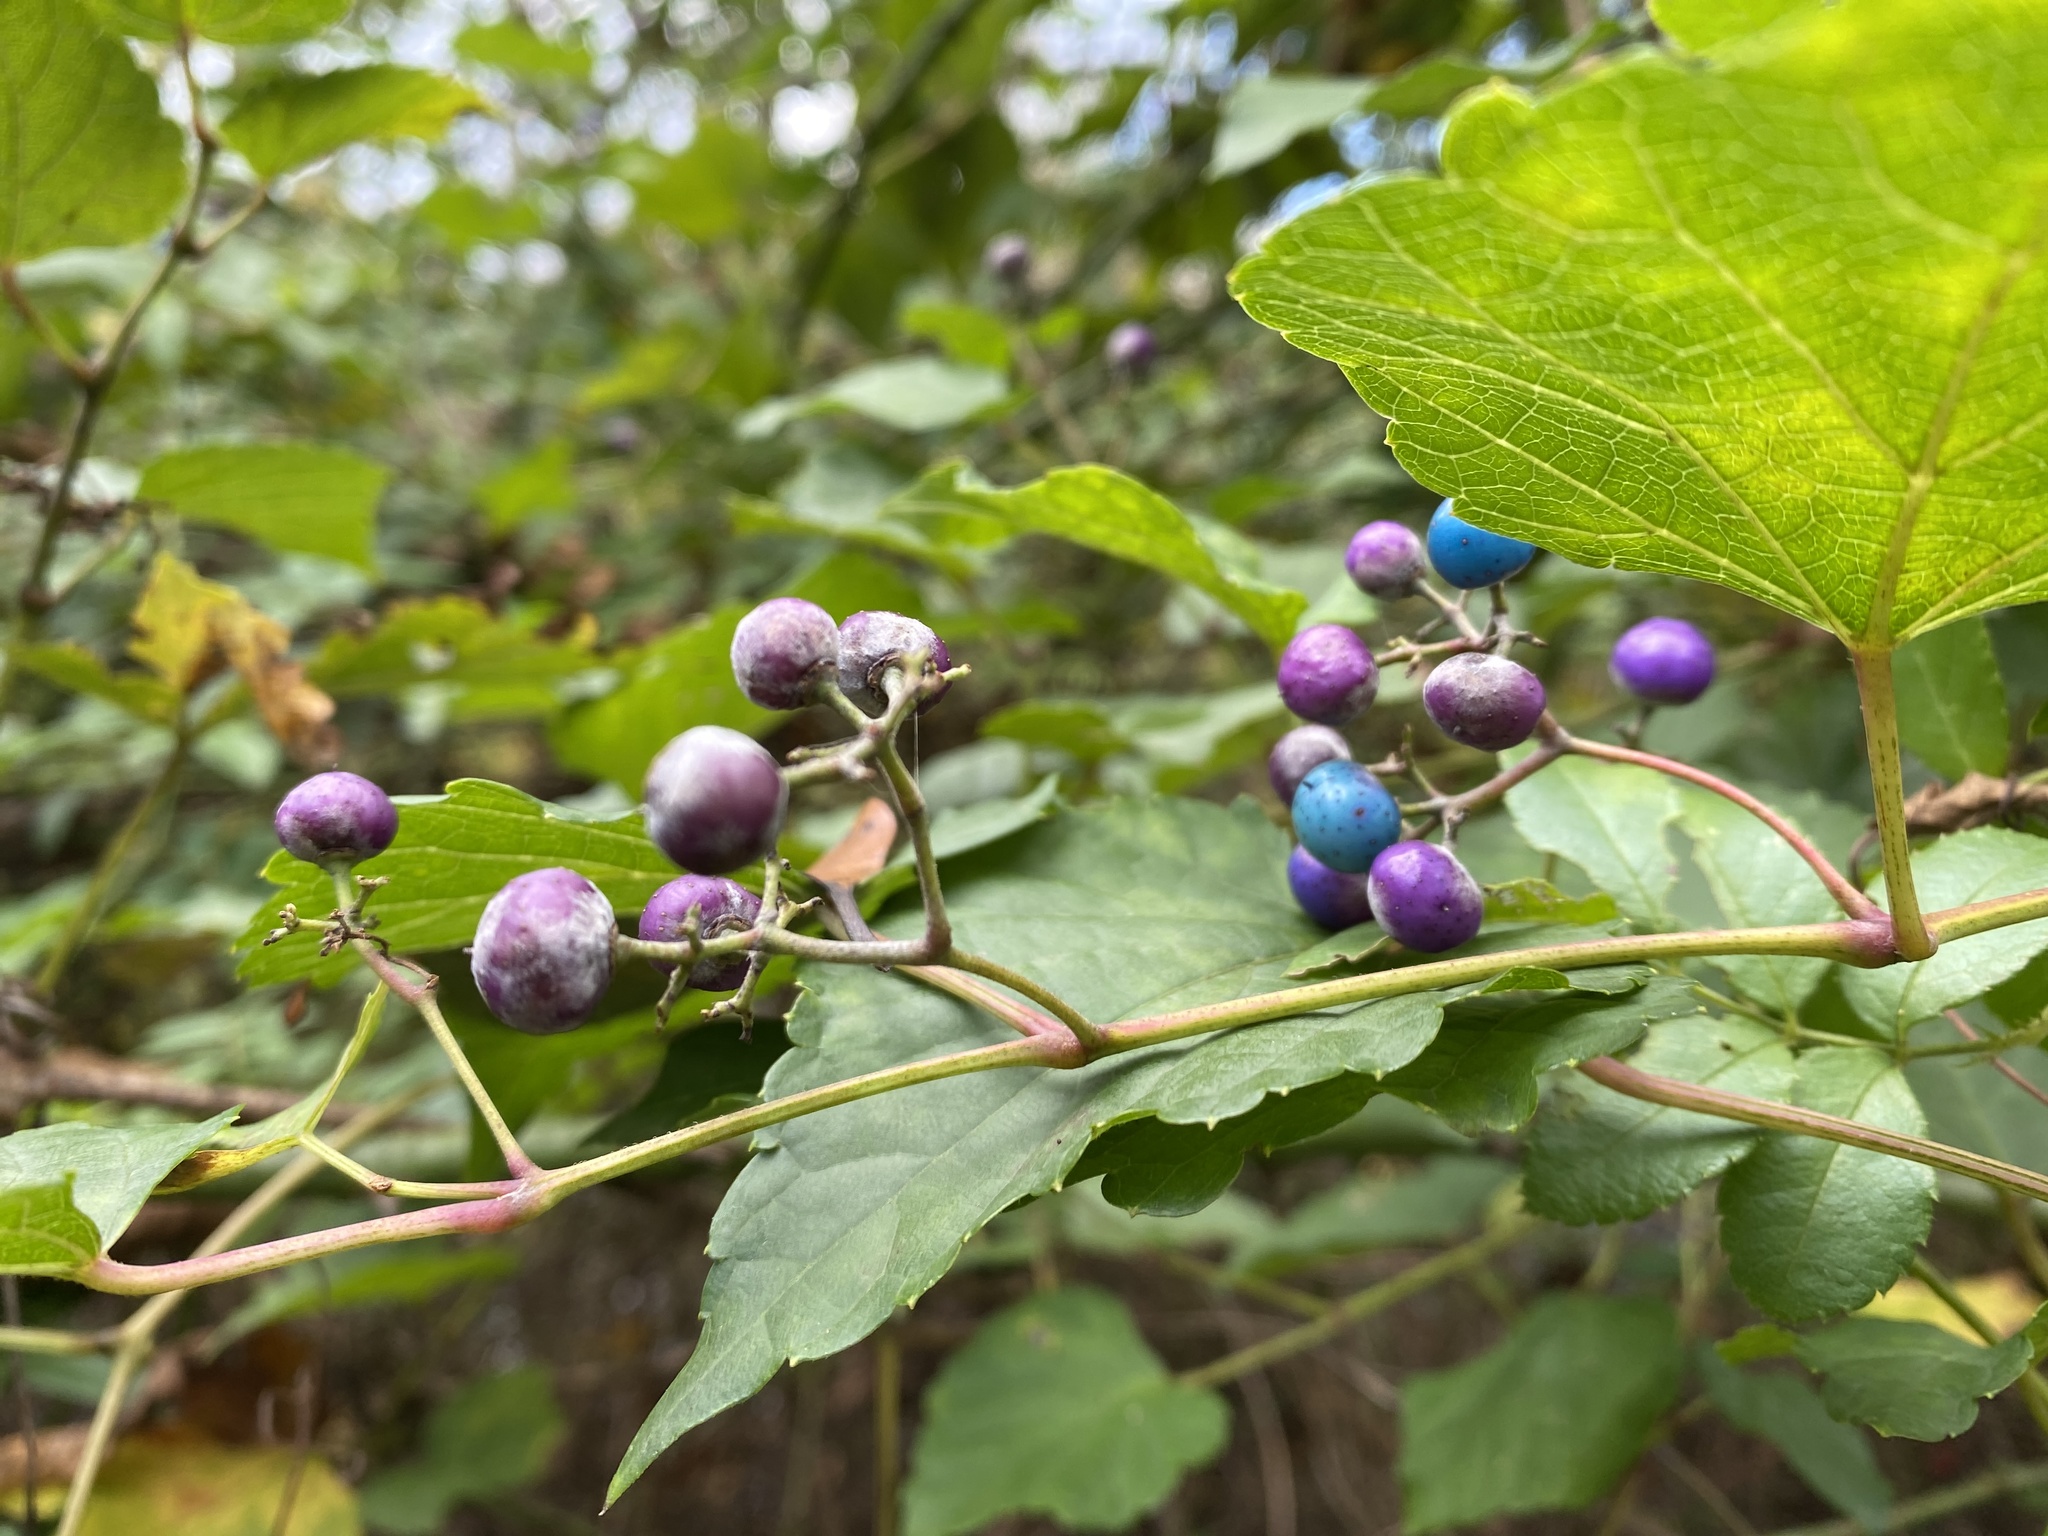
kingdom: Plantae
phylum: Tracheophyta
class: Magnoliopsida
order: Vitales
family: Vitaceae
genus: Ampelopsis
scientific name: Ampelopsis glandulosa
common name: Amur peppervine
